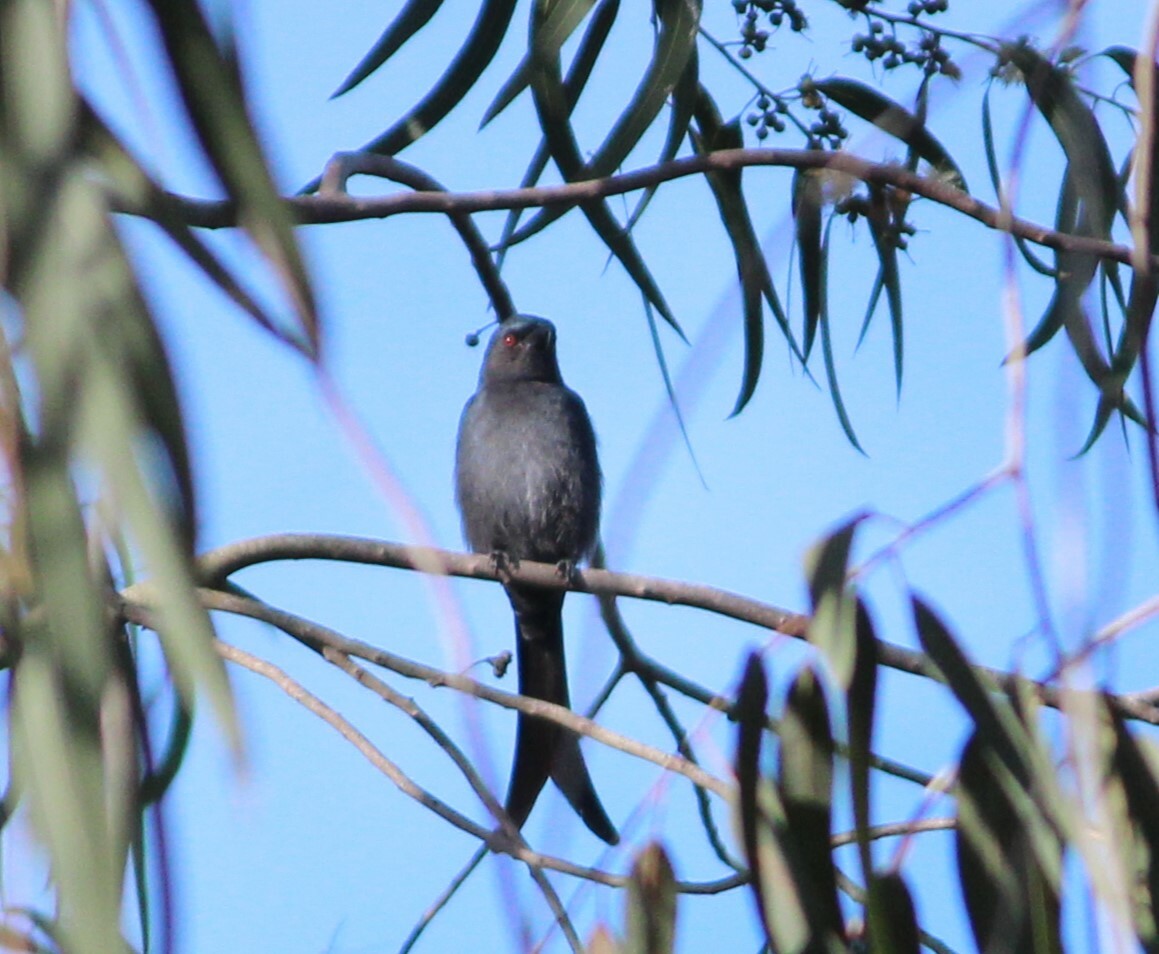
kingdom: Animalia
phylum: Chordata
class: Aves
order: Passeriformes
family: Dicruridae
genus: Dicrurus
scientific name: Dicrurus leucophaeus
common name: Ashy drongo
